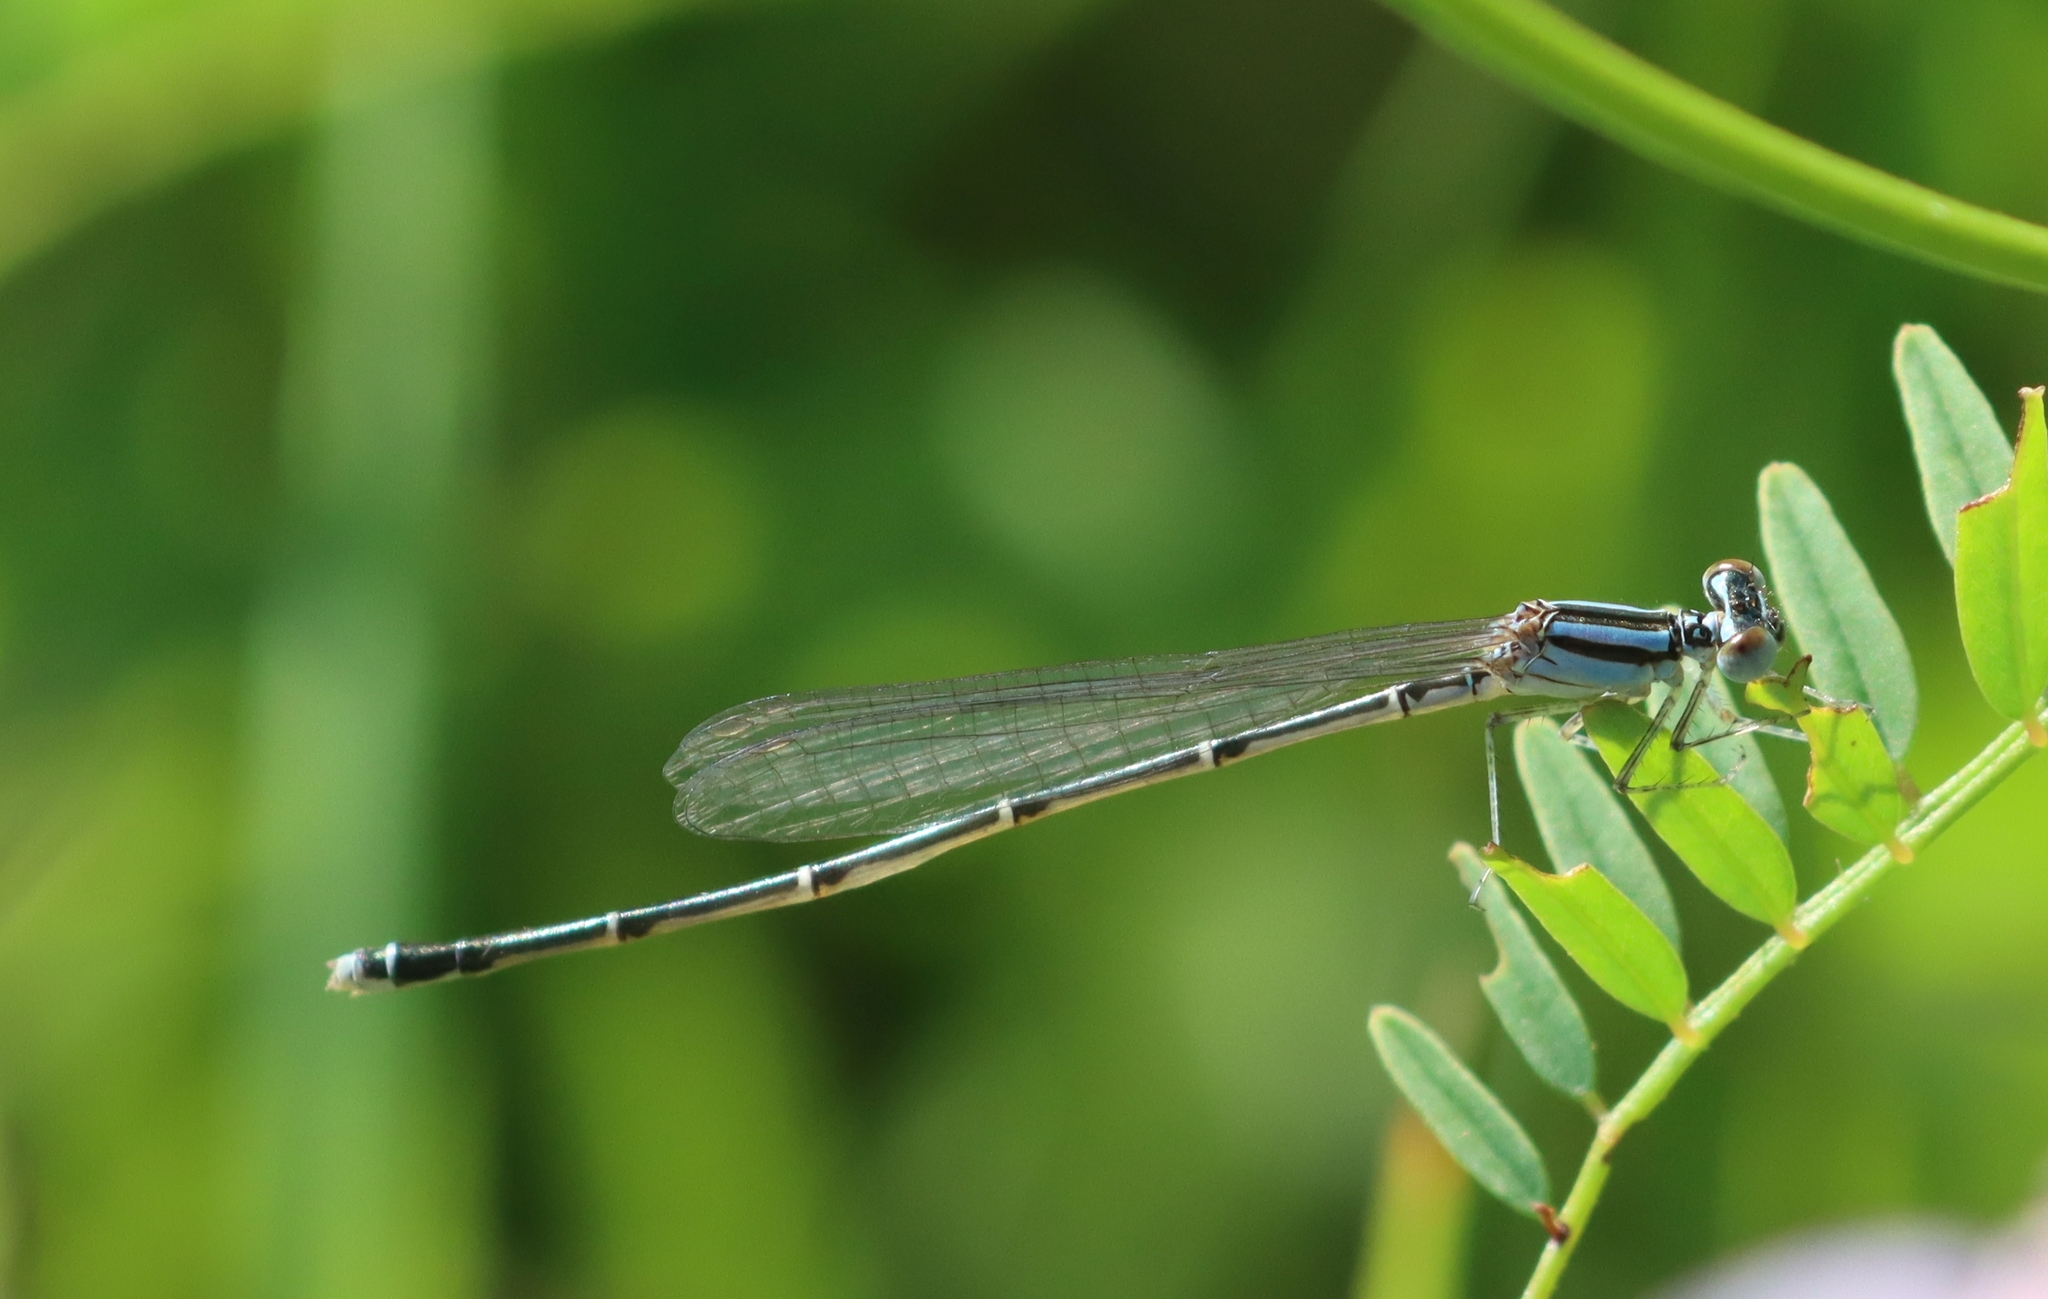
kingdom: Animalia
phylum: Arthropoda
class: Insecta
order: Odonata
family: Coenagrionidae
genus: Enallagma
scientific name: Enallagma signatum
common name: Orange bluet
